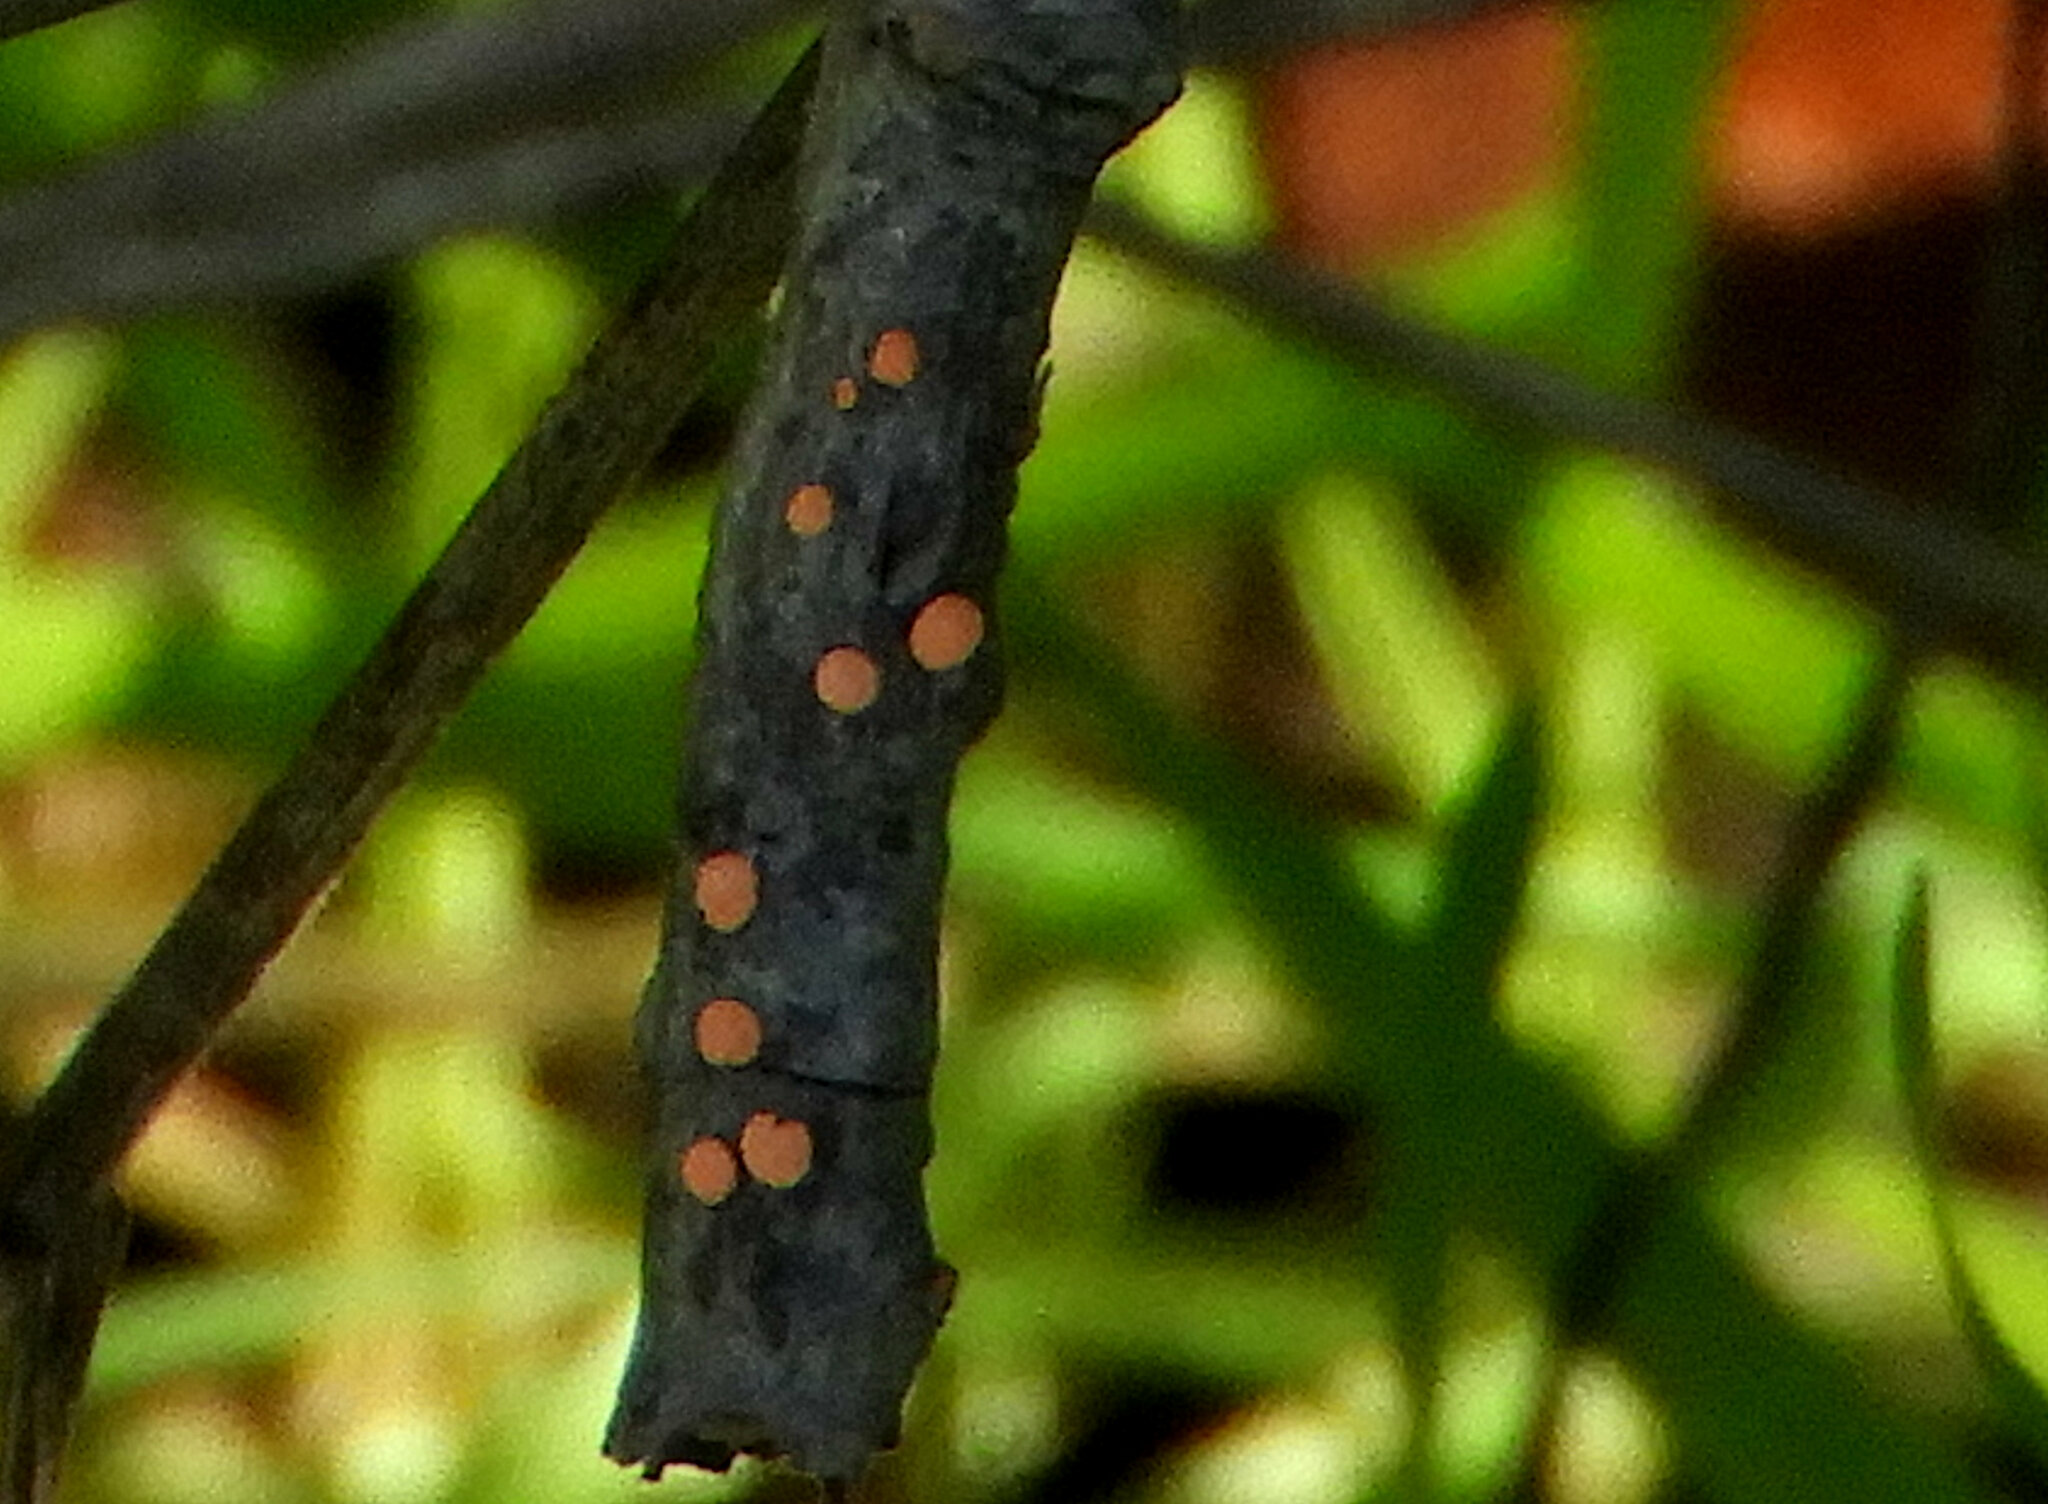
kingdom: Fungi
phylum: Ascomycota
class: Sordariomycetes
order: Hypocreales
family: Nectriaceae
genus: Nectria
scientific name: Nectria cinnabarina
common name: Coral spot
